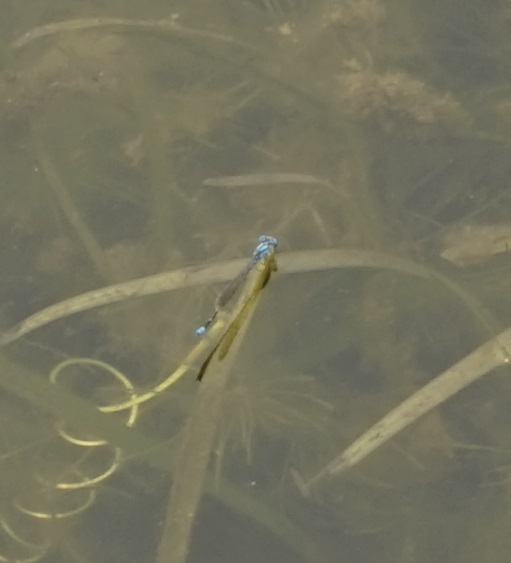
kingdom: Animalia
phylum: Arthropoda
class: Insecta
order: Odonata
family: Coenagrionidae
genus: Pseudagrion
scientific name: Pseudagrion microcephalum
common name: Blue riverdamsel
